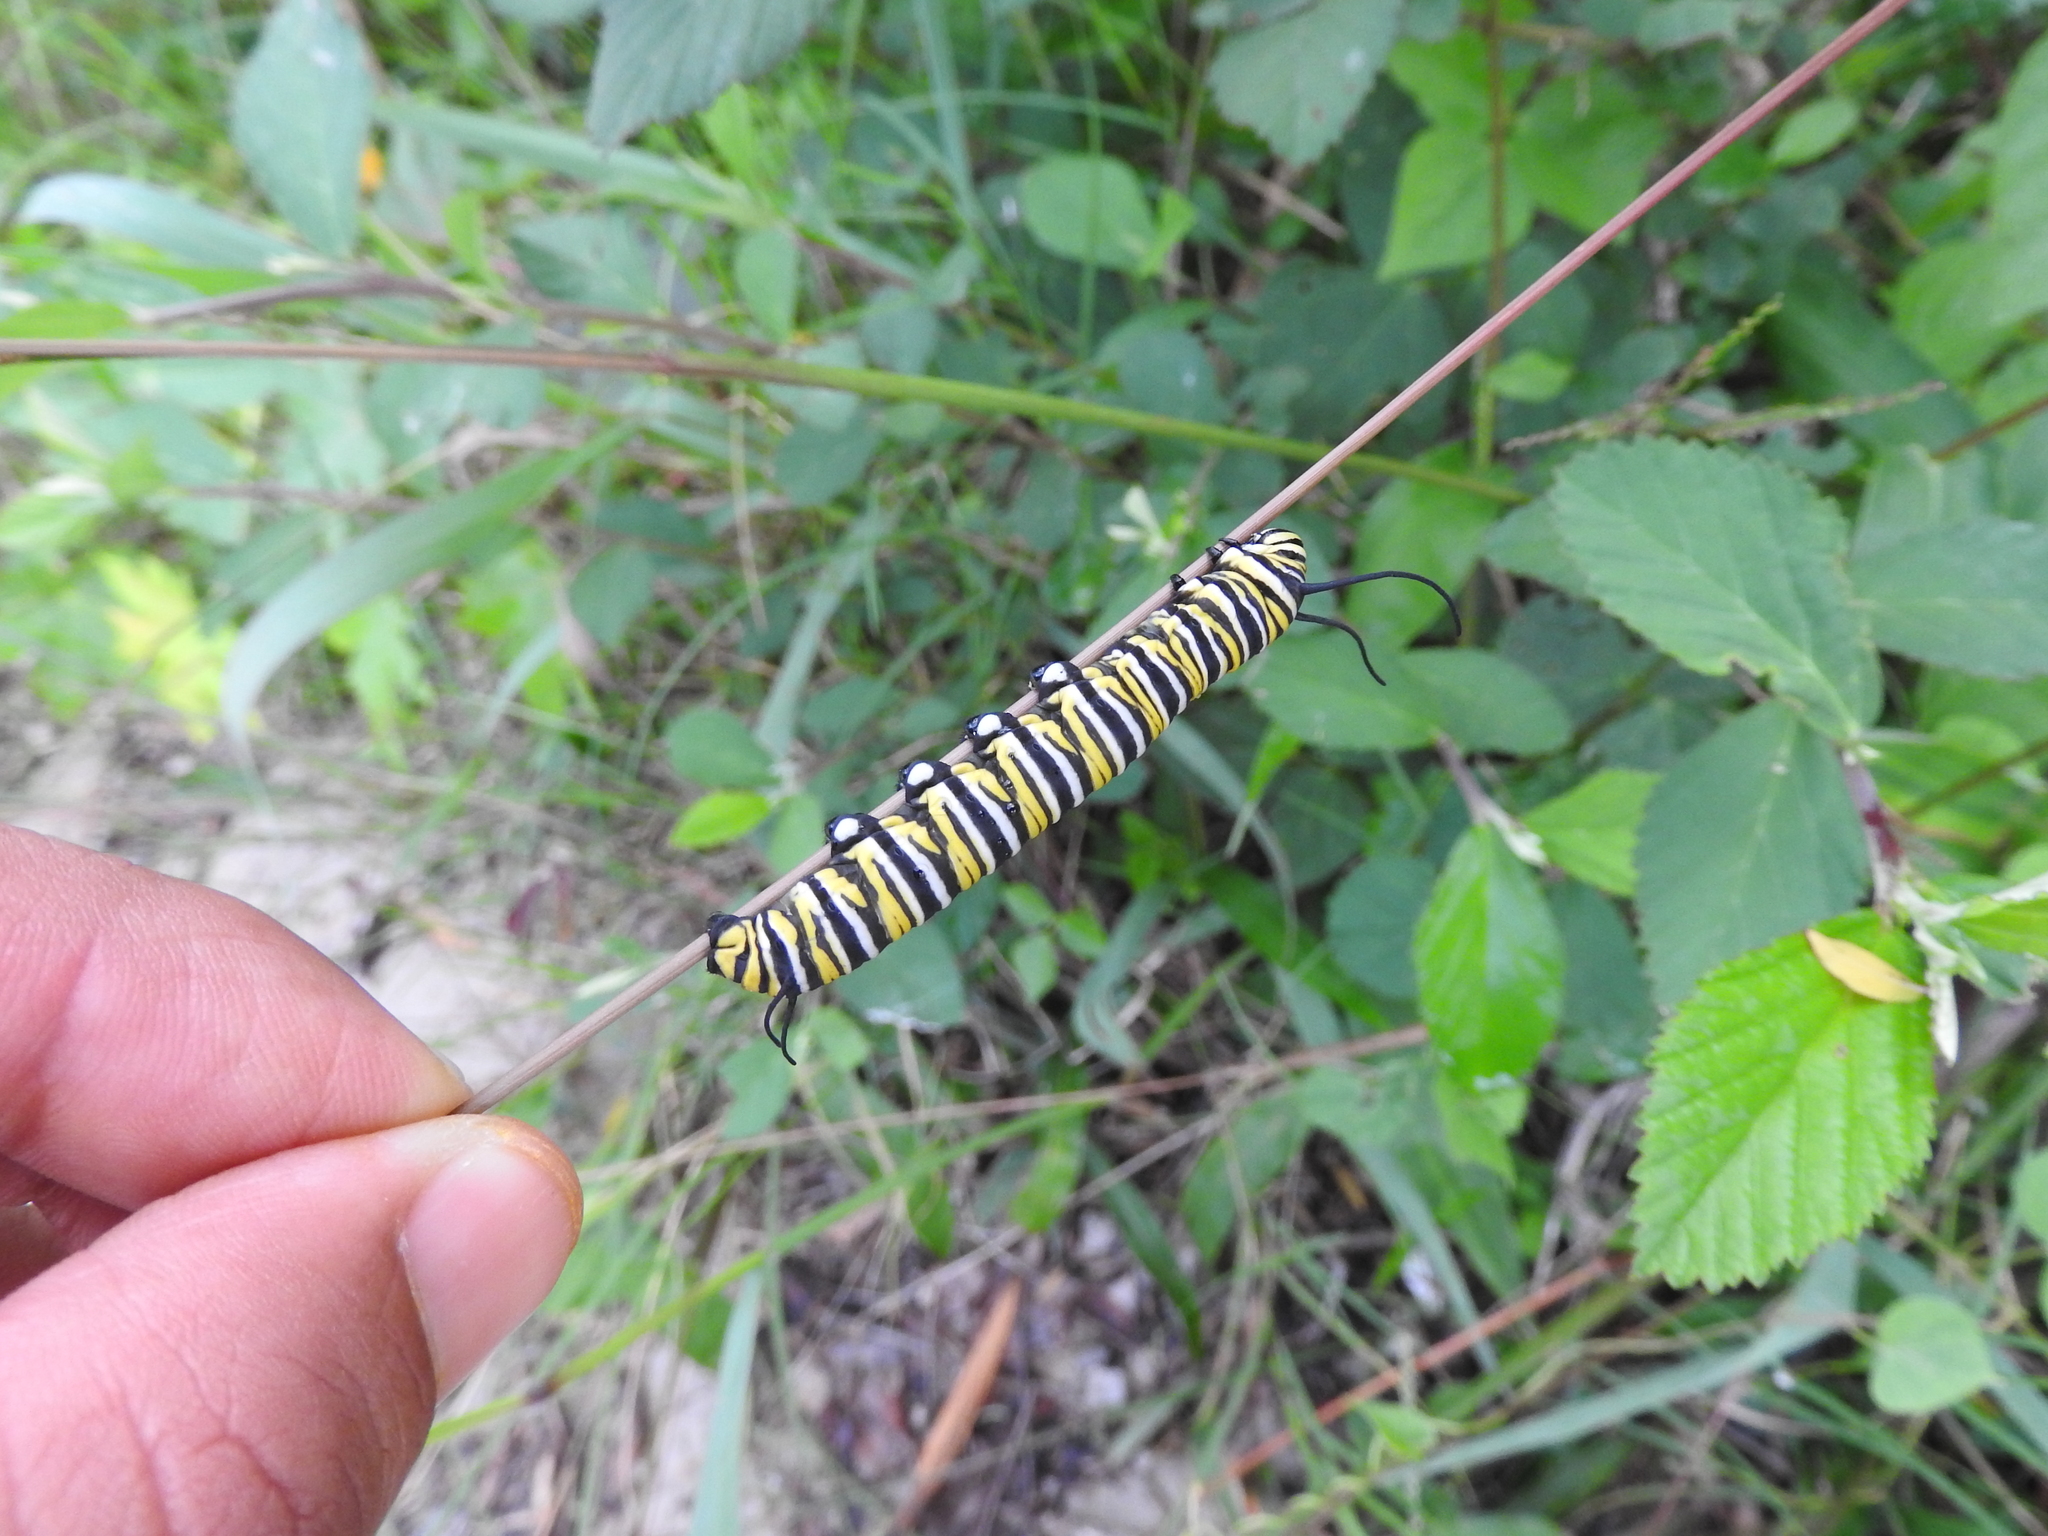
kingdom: Animalia
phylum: Arthropoda
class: Insecta
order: Lepidoptera
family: Nymphalidae
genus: Danaus
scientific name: Danaus plexippus
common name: Monarch
